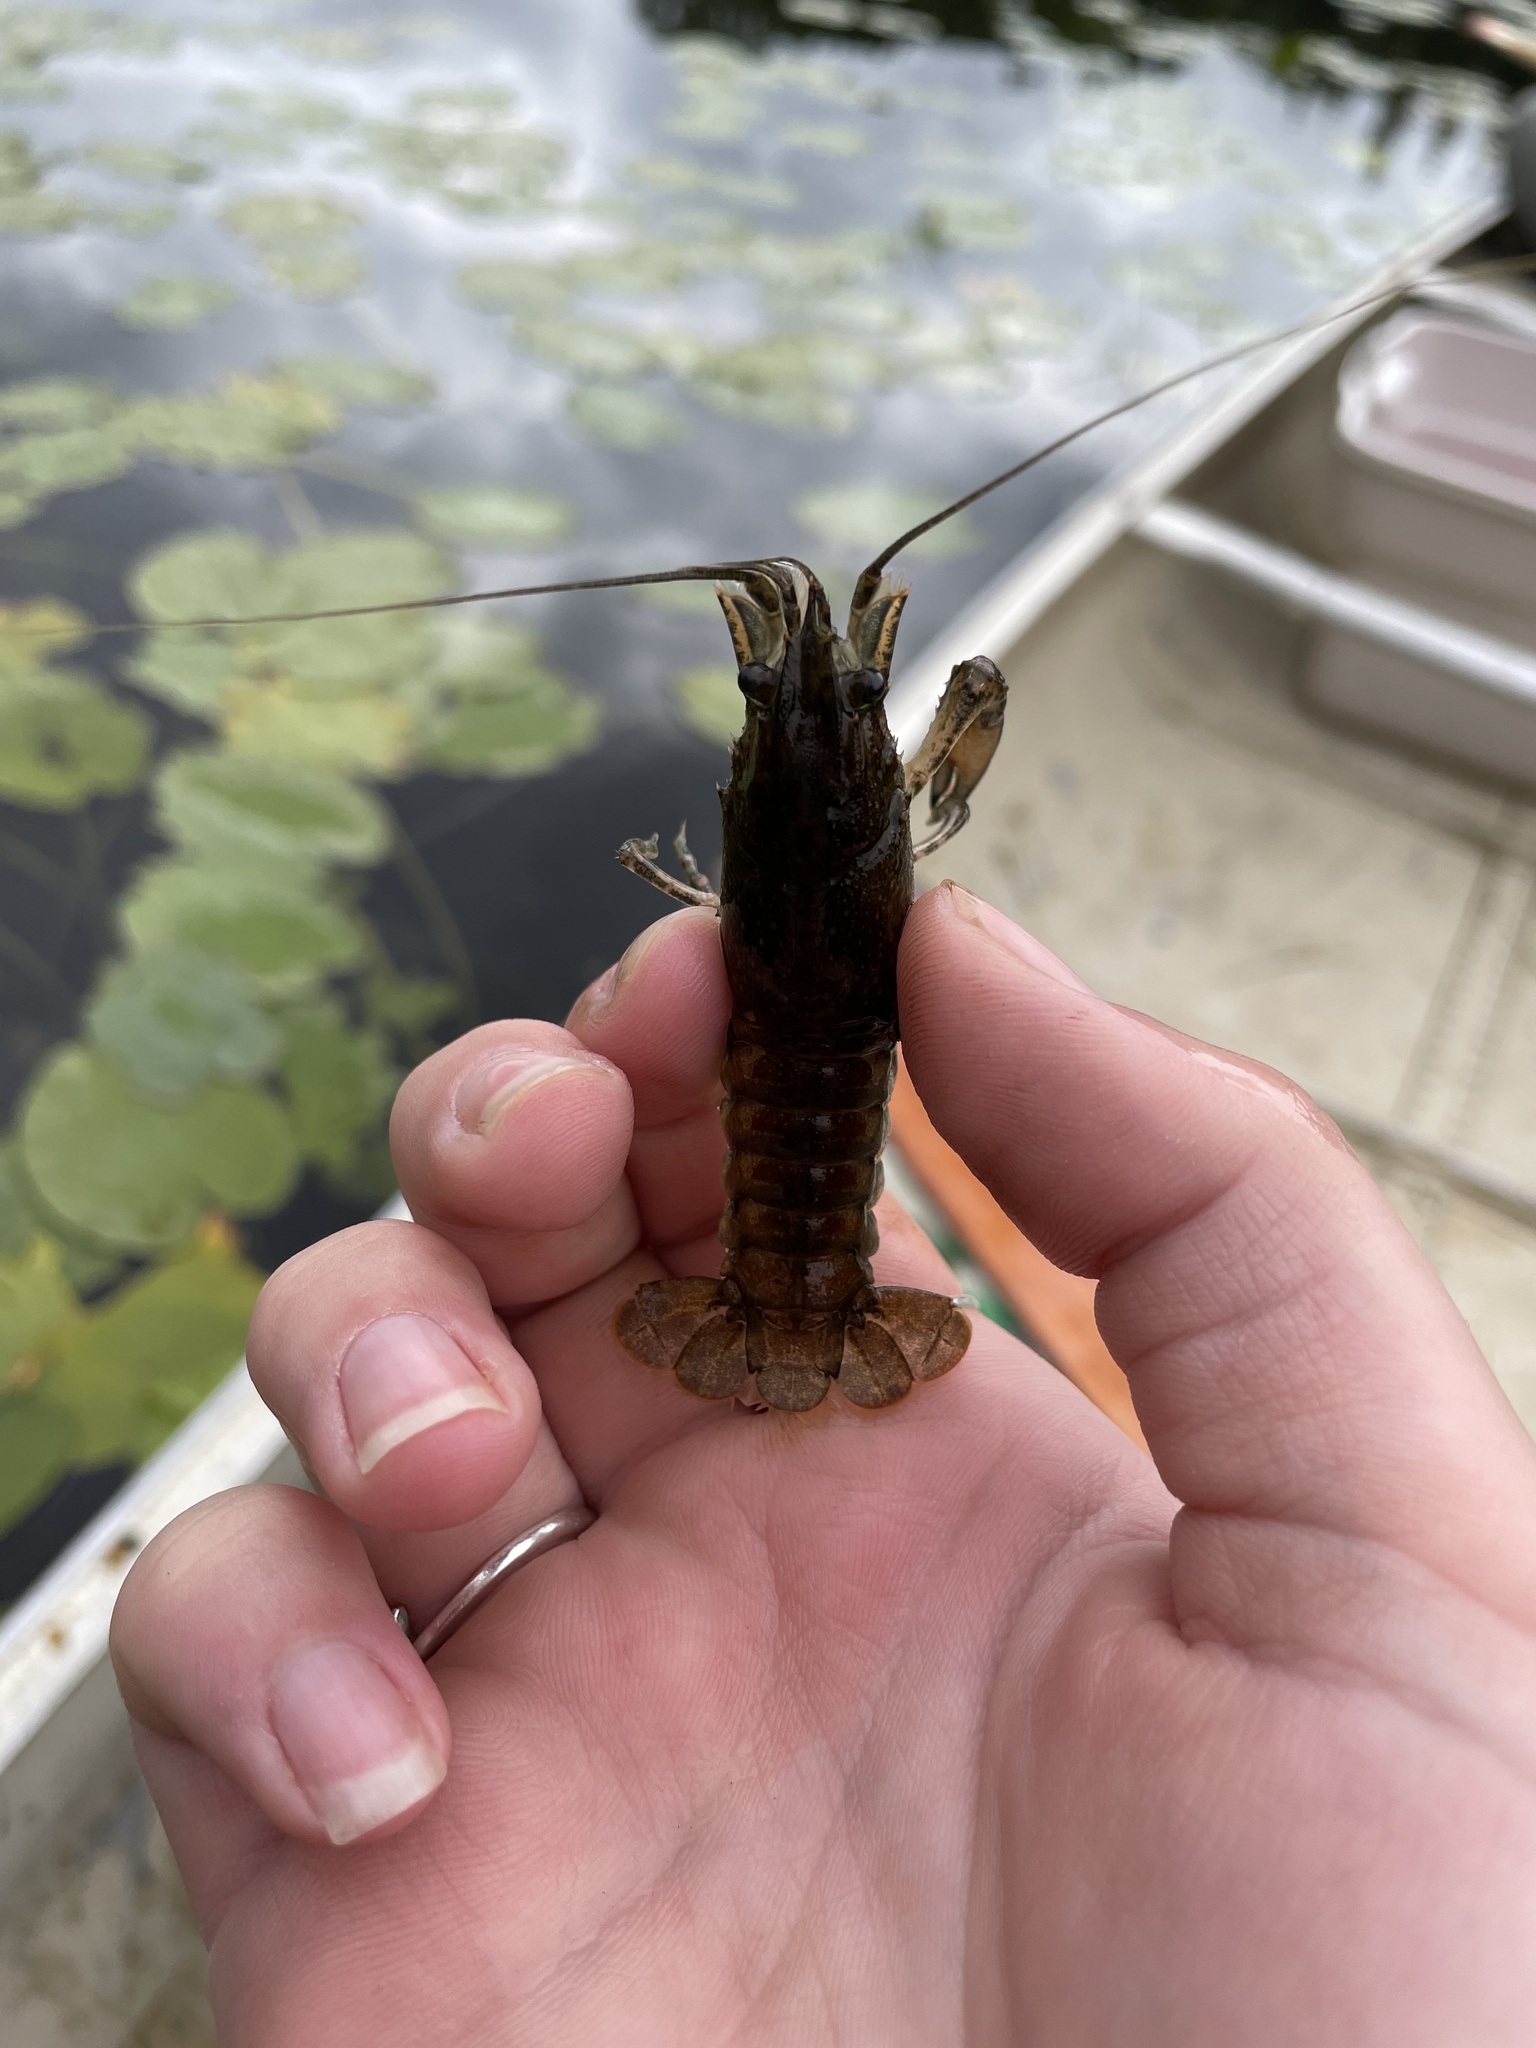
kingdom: Animalia
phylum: Arthropoda
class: Malacostraca
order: Decapoda
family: Cambaridae
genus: Faxonius
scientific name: Faxonius limosus
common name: American crayfish
